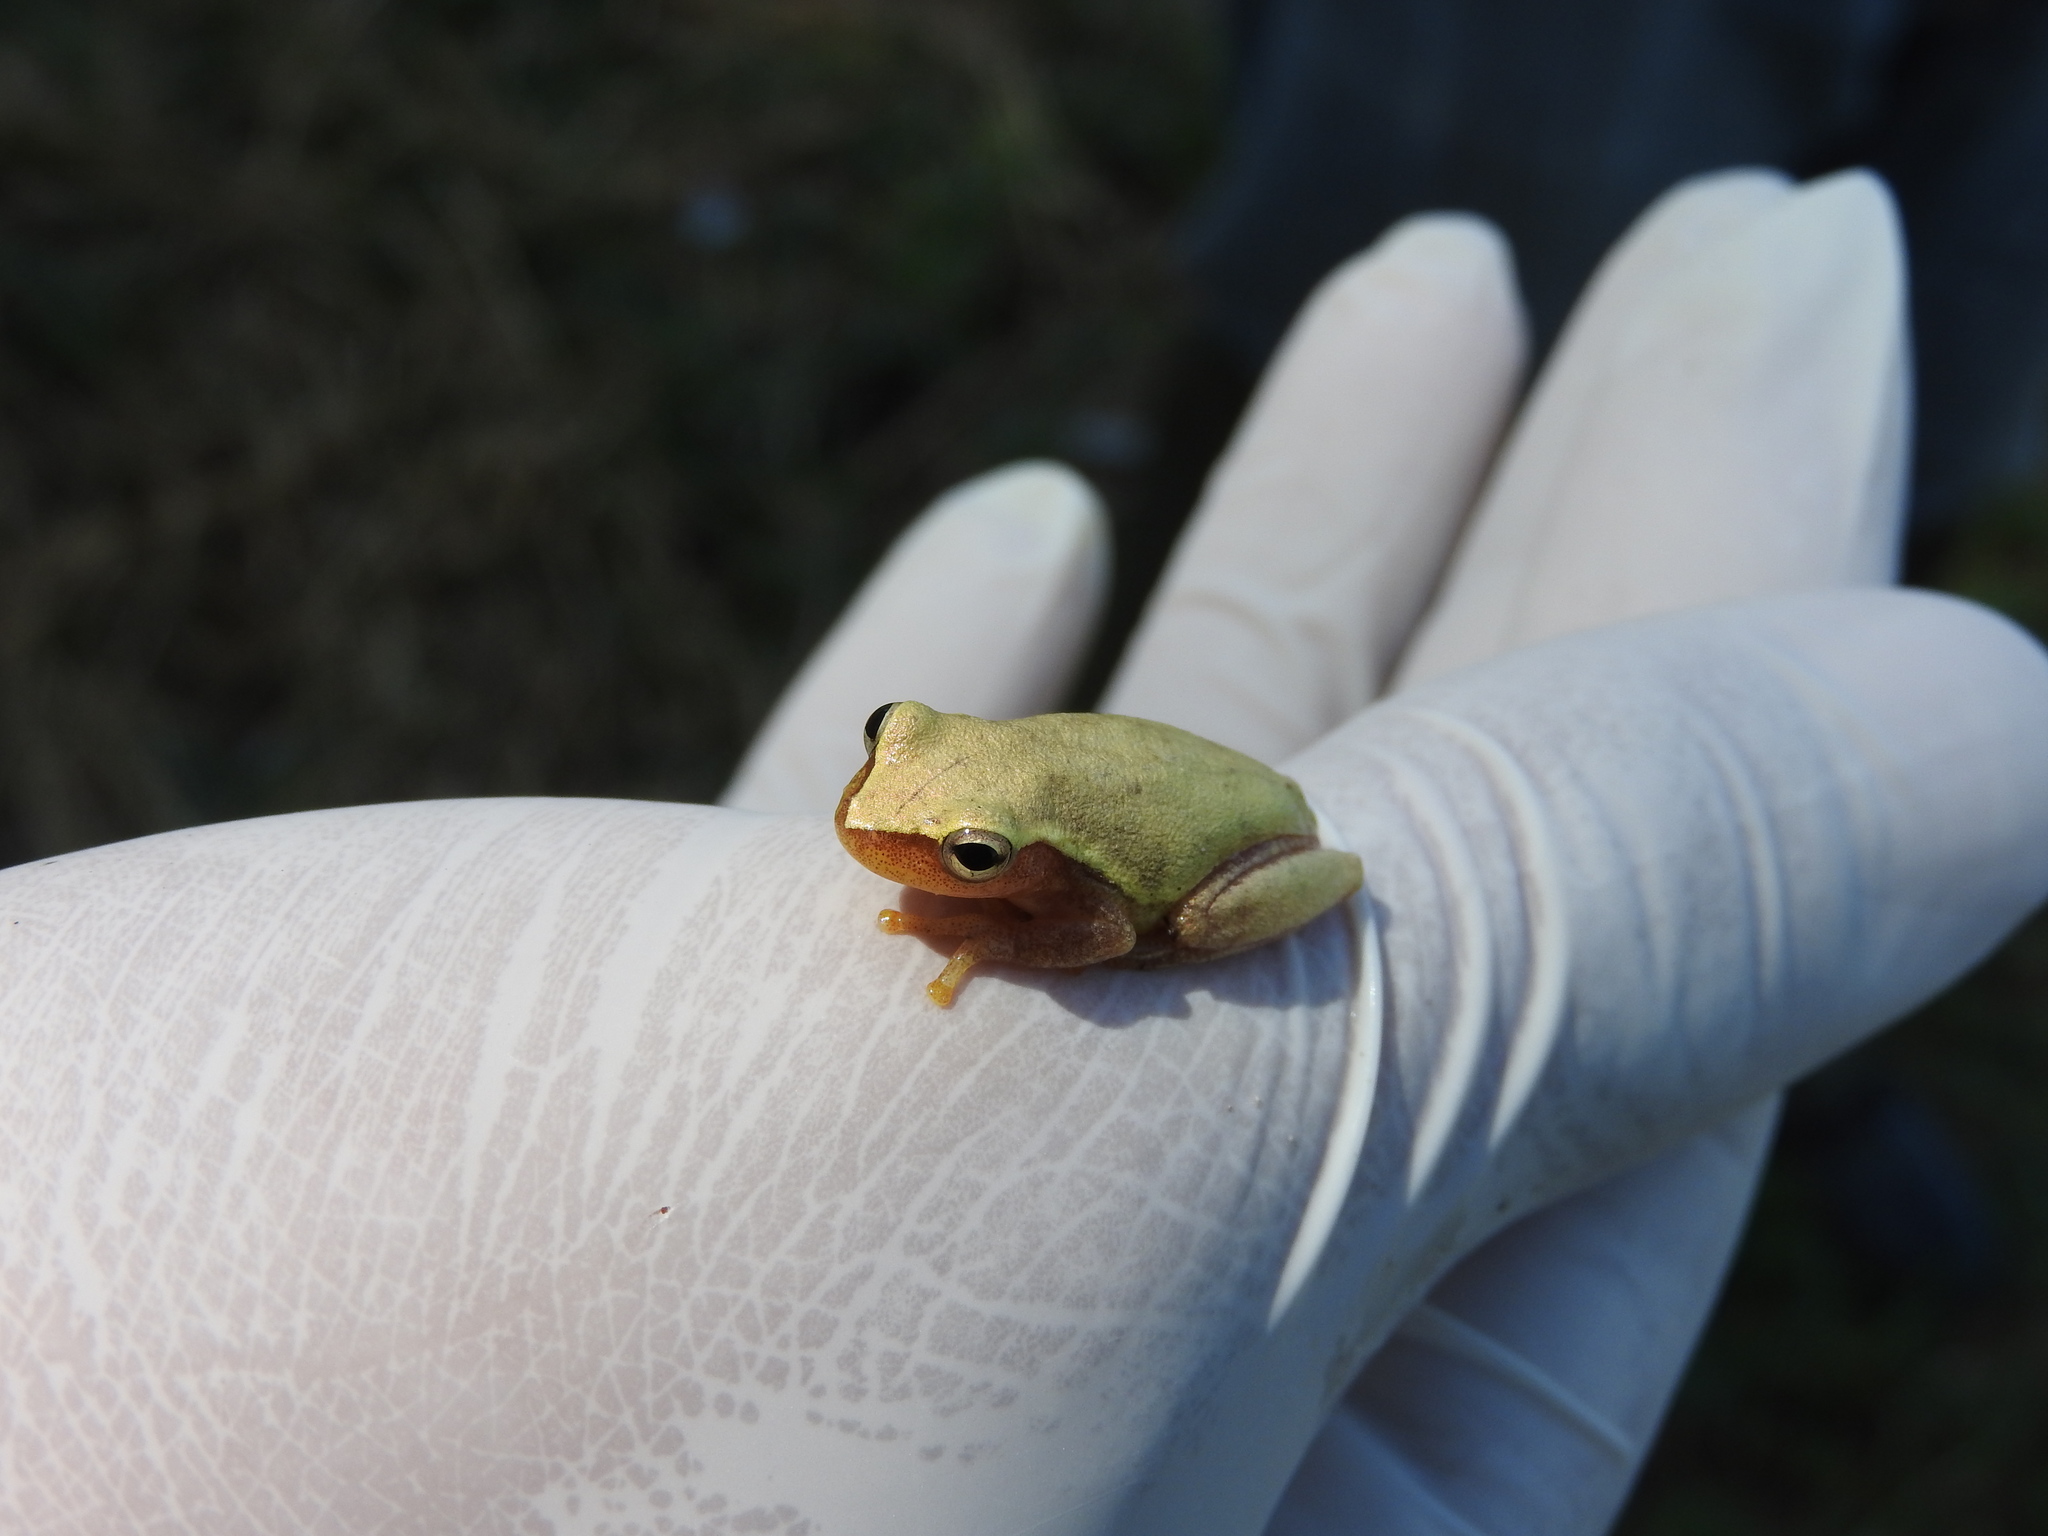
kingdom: Animalia
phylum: Chordata
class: Amphibia
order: Anura
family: Hylidae
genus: Tlalocohyla
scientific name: Tlalocohyla smithii
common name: Dwarf mexican treefrog
